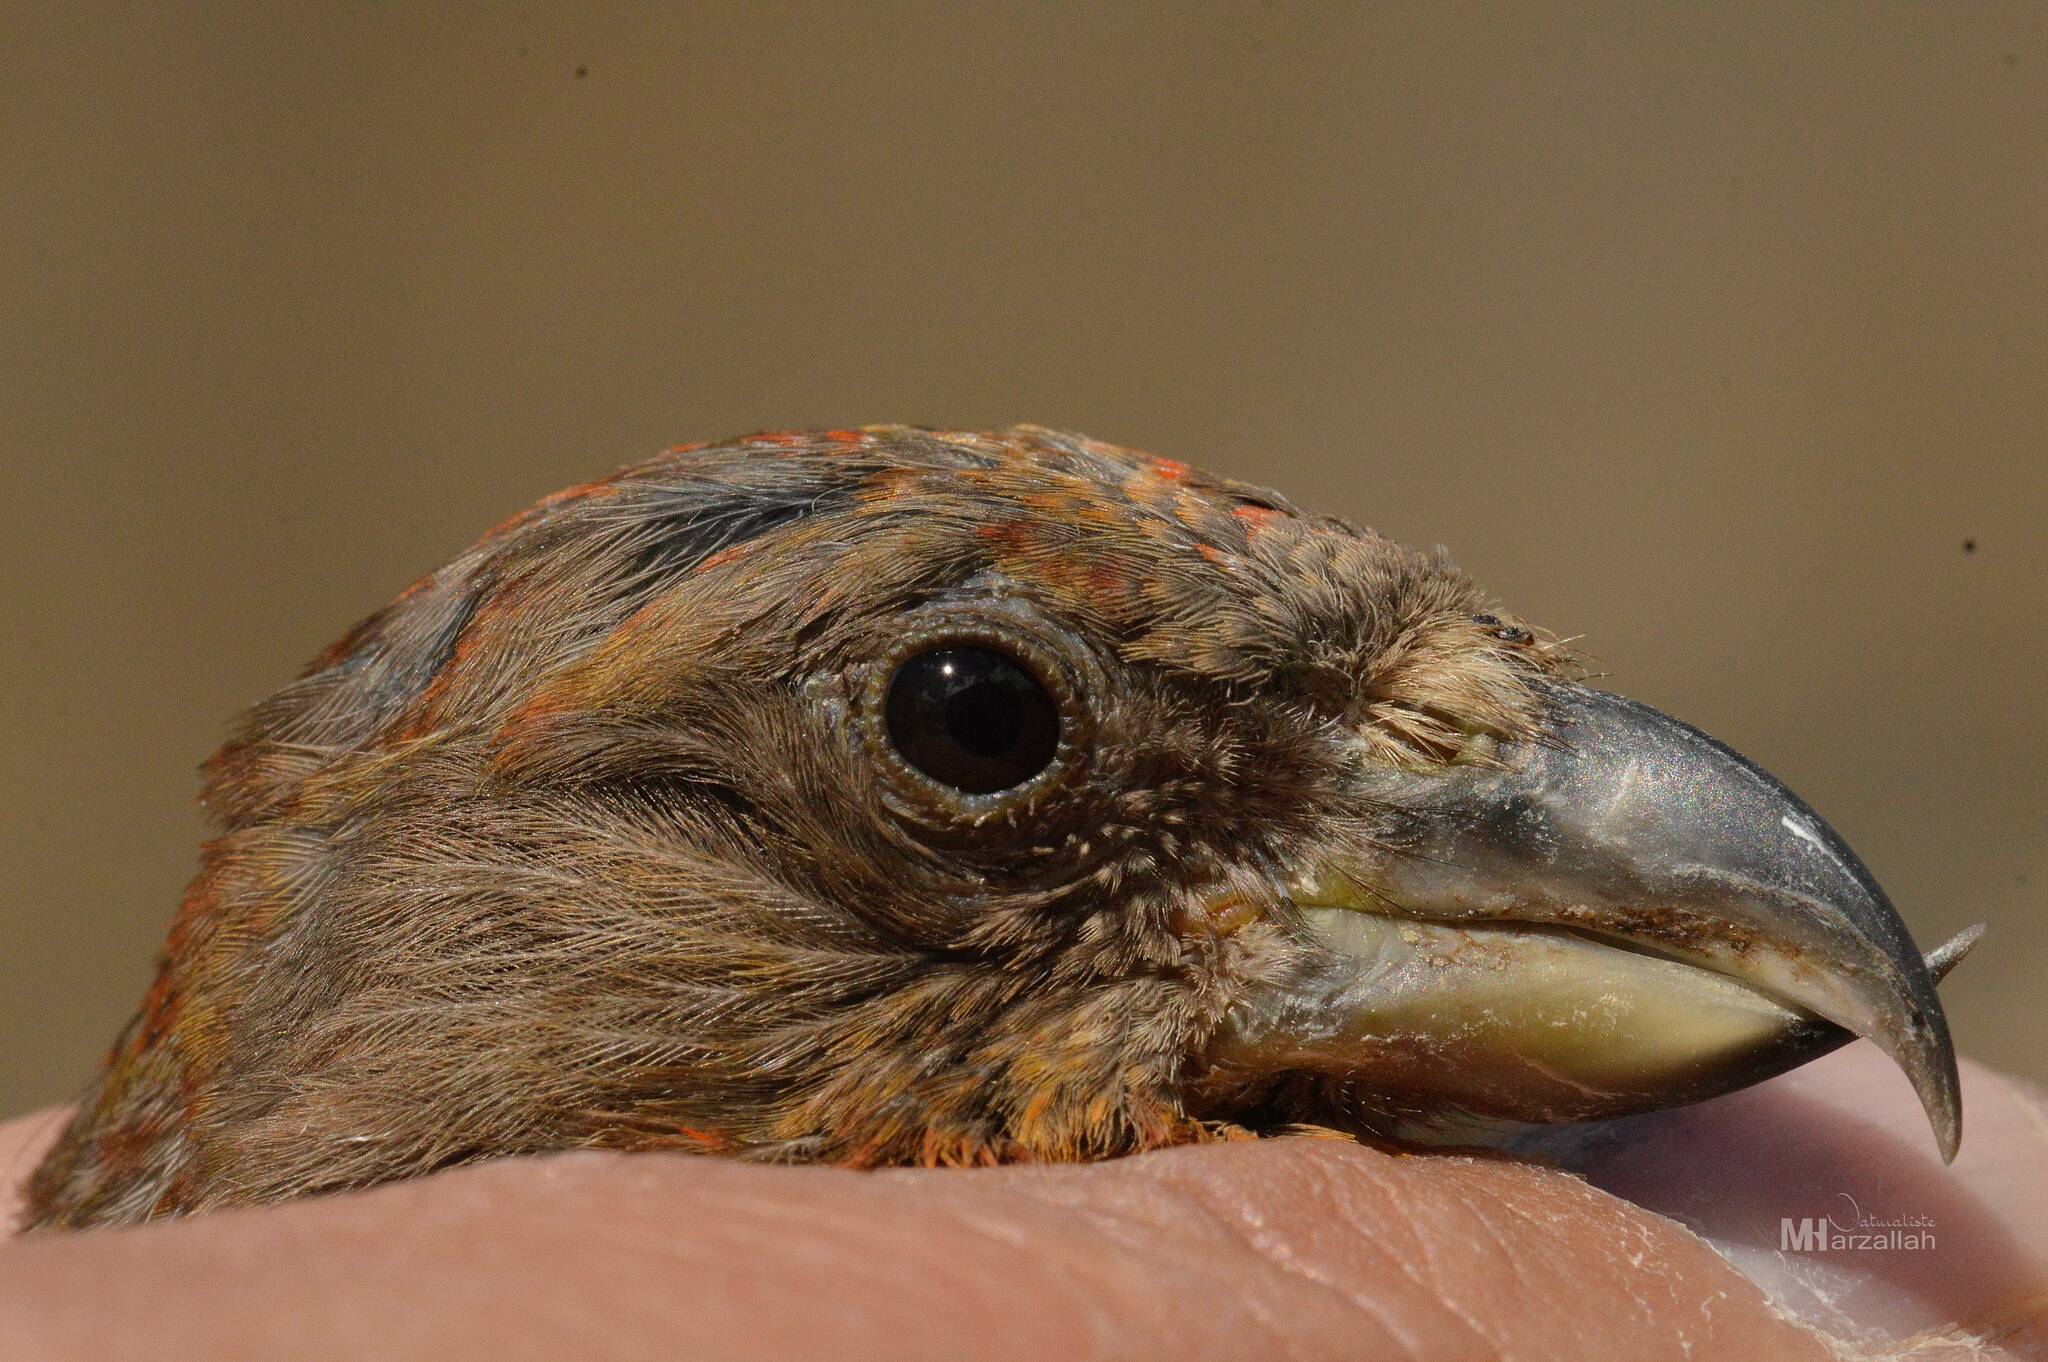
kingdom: Animalia
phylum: Chordata
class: Aves
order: Passeriformes
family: Fringillidae
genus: Loxia
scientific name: Loxia curvirostra
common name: Red crossbill
